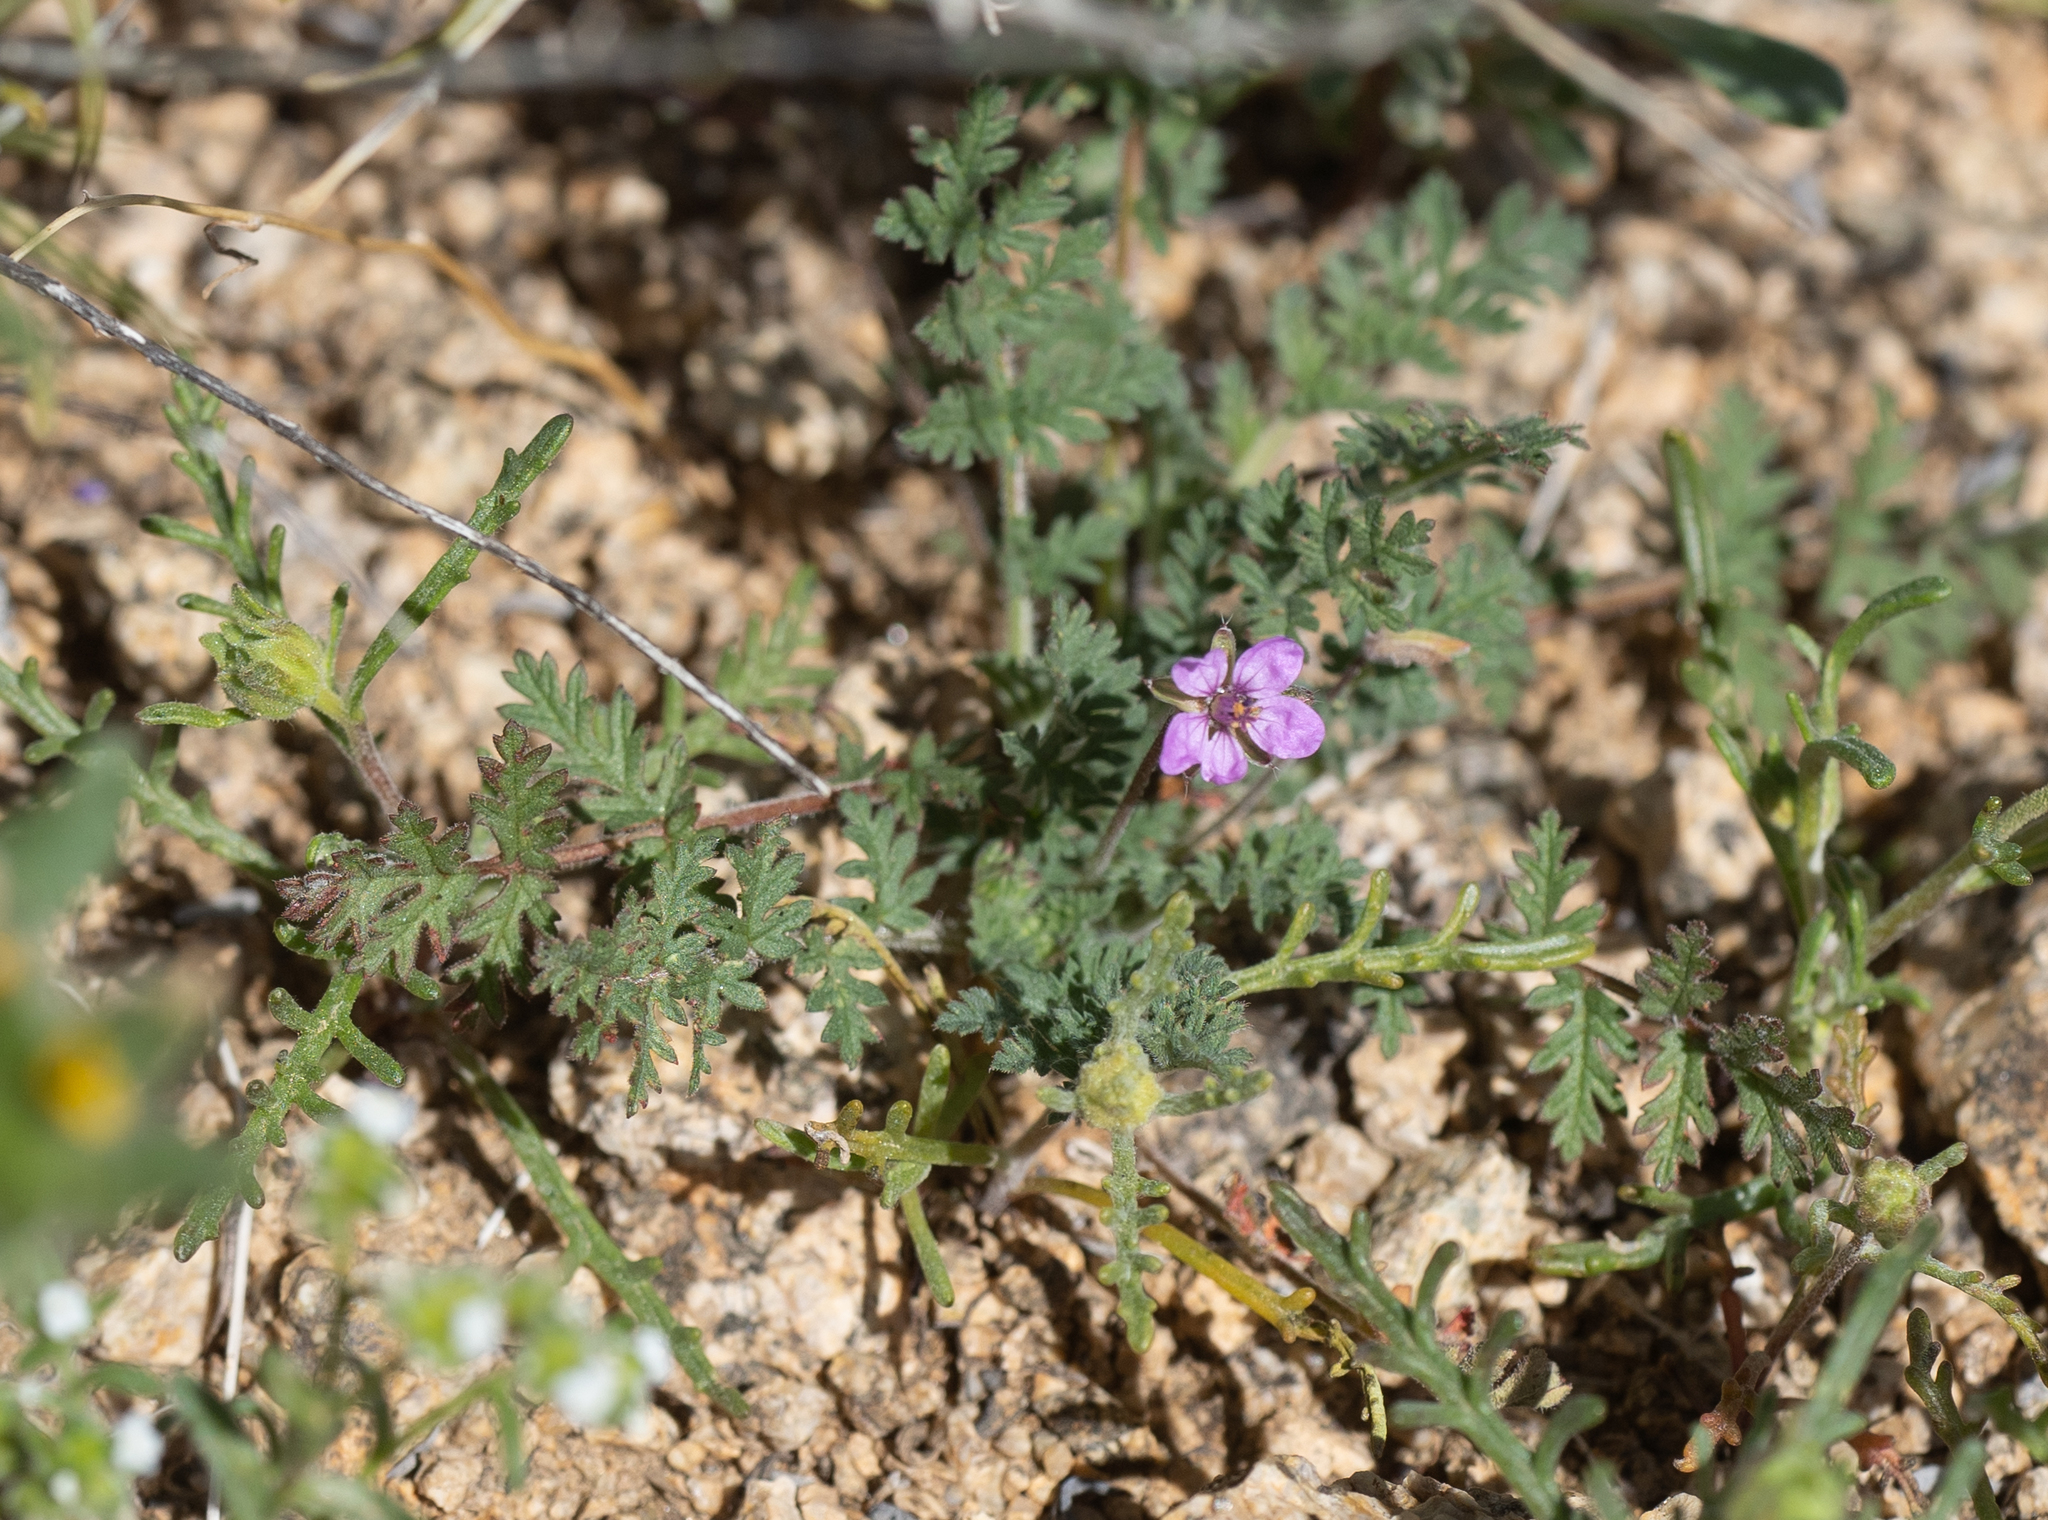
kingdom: Plantae
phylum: Tracheophyta
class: Magnoliopsida
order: Geraniales
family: Geraniaceae
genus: Erodium
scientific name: Erodium cicutarium
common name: Common stork's-bill
